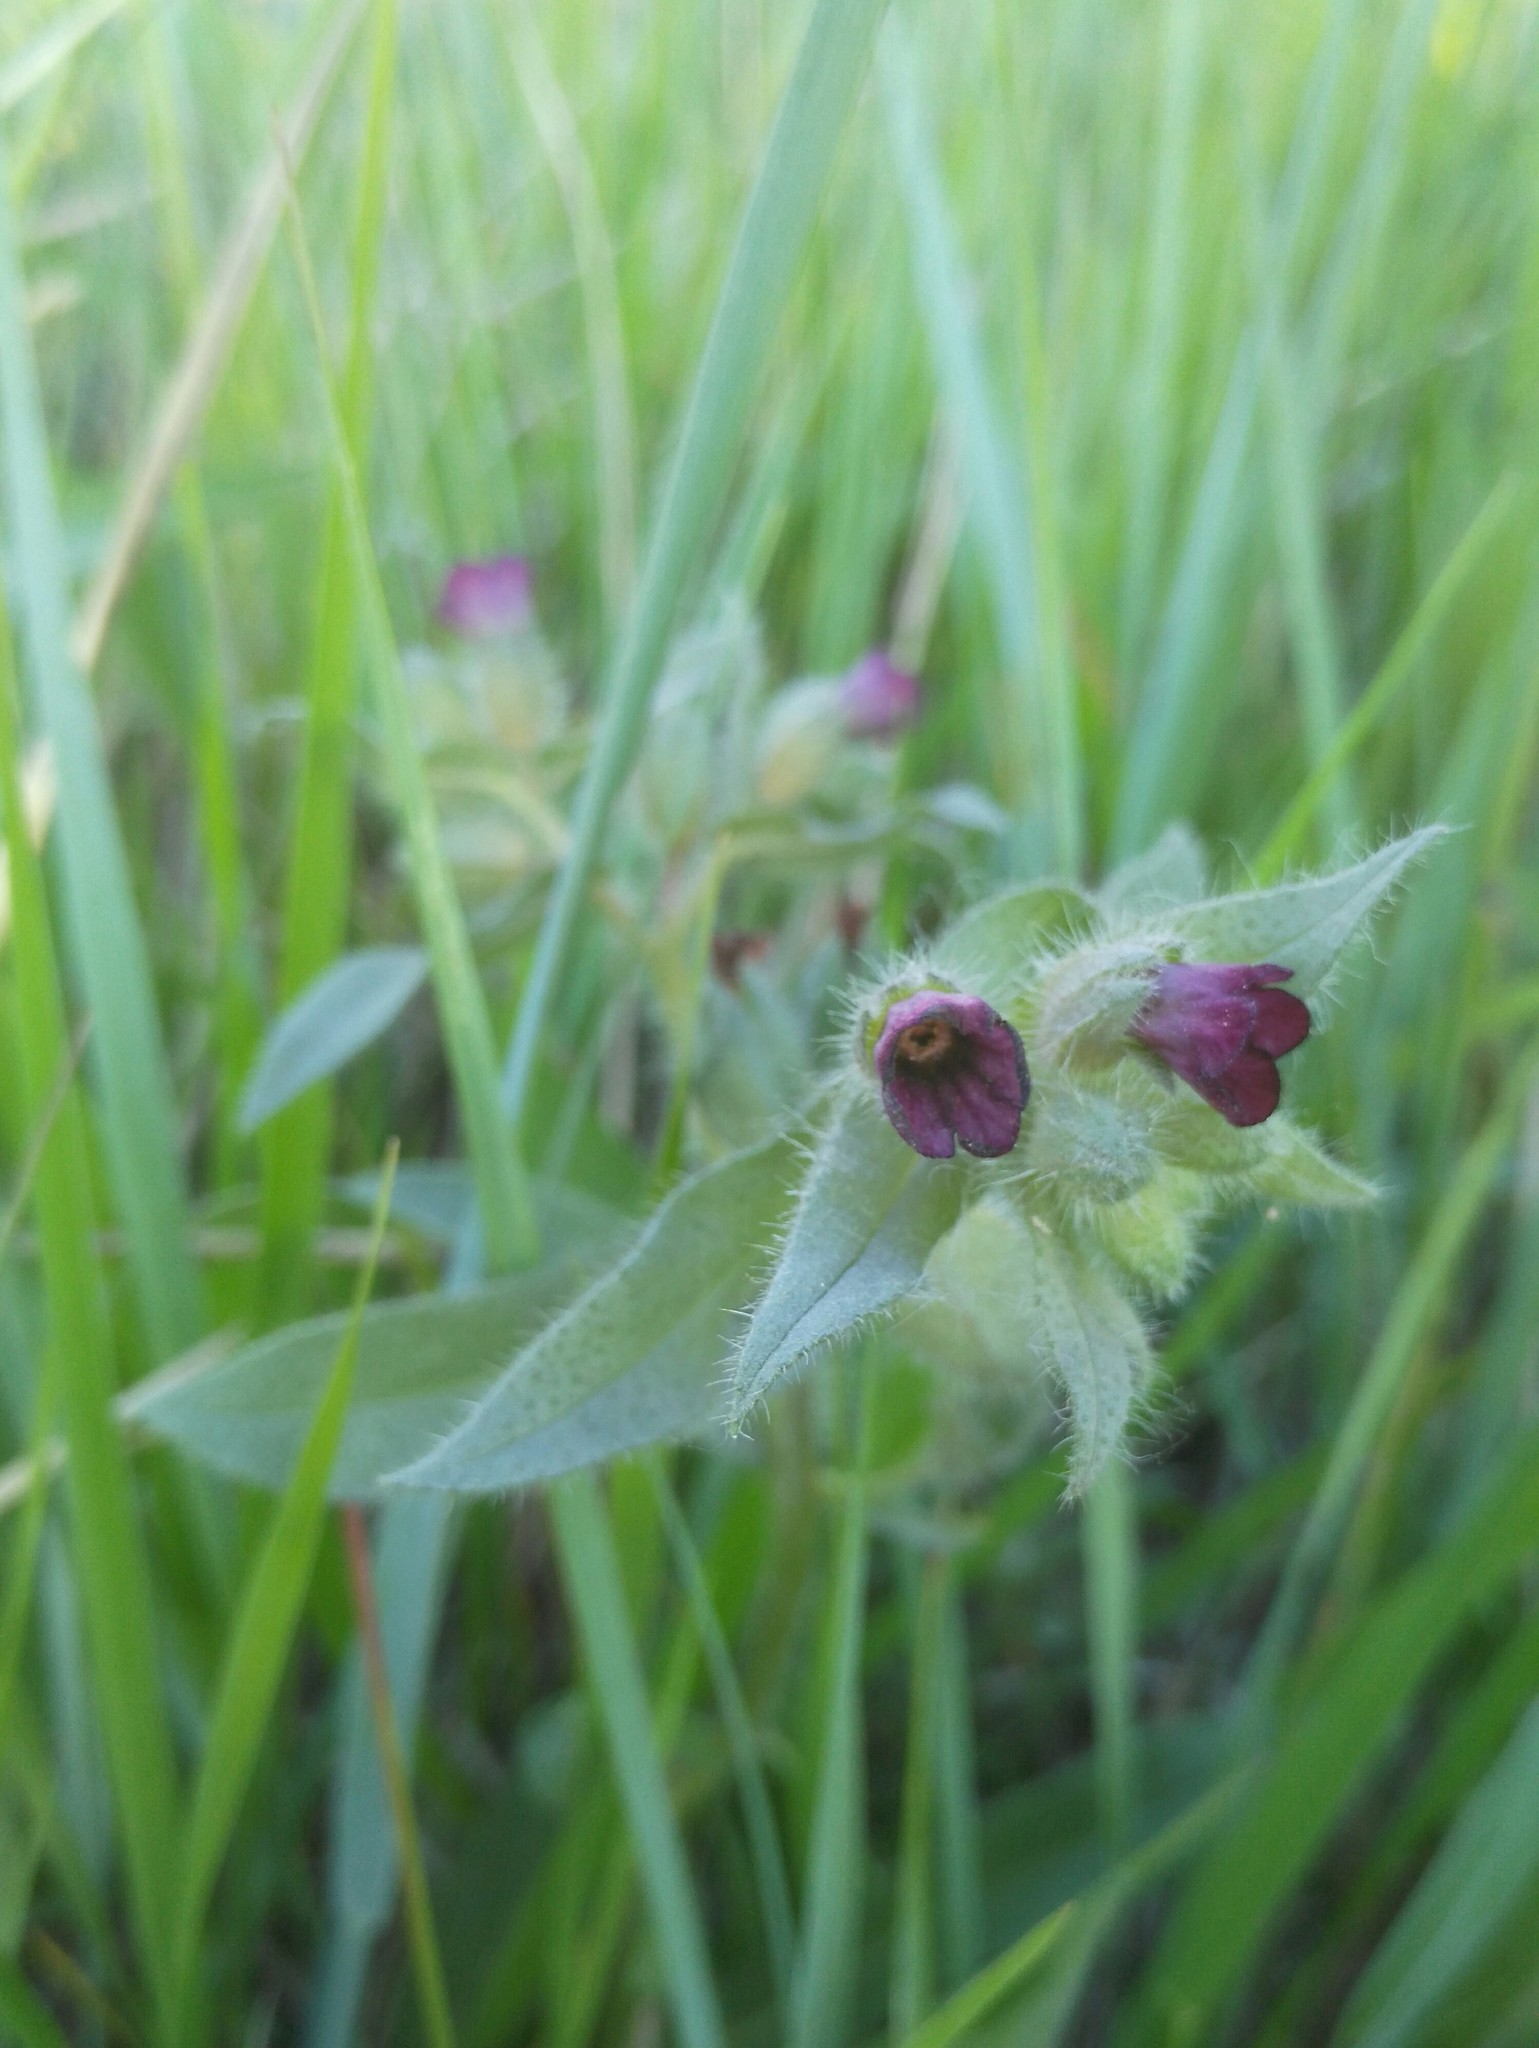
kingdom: Plantae
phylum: Tracheophyta
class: Magnoliopsida
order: Boraginales
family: Boraginaceae
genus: Nonea
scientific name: Nonea pulla
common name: Brown nonea
